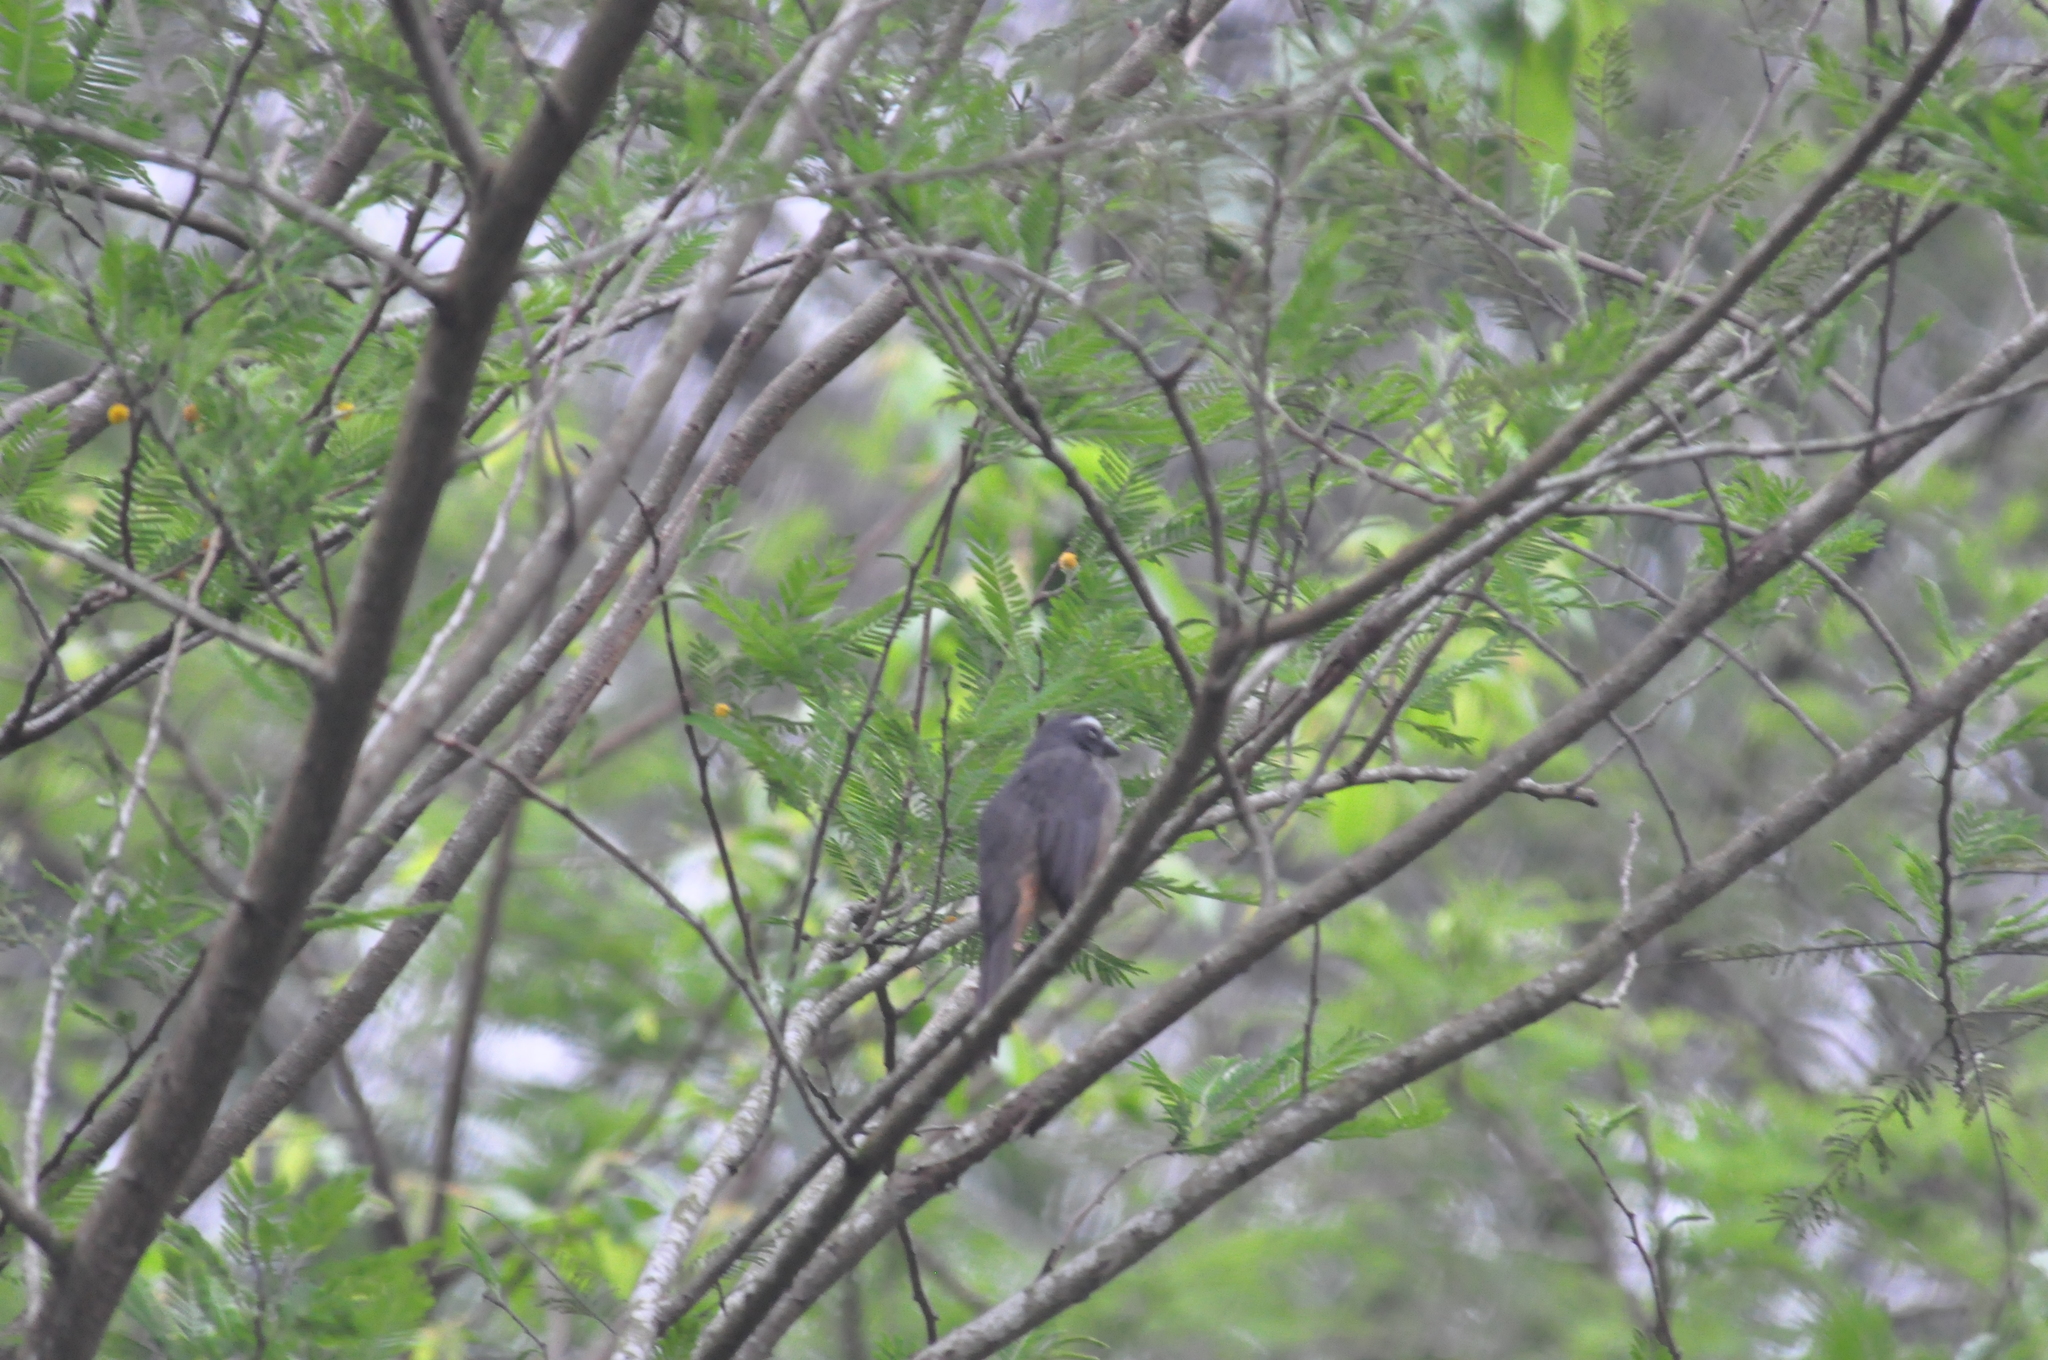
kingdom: Animalia
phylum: Chordata
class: Aves
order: Passeriformes
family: Thraupidae
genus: Saltator
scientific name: Saltator grandis
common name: Cinnamon-bellied saltator
